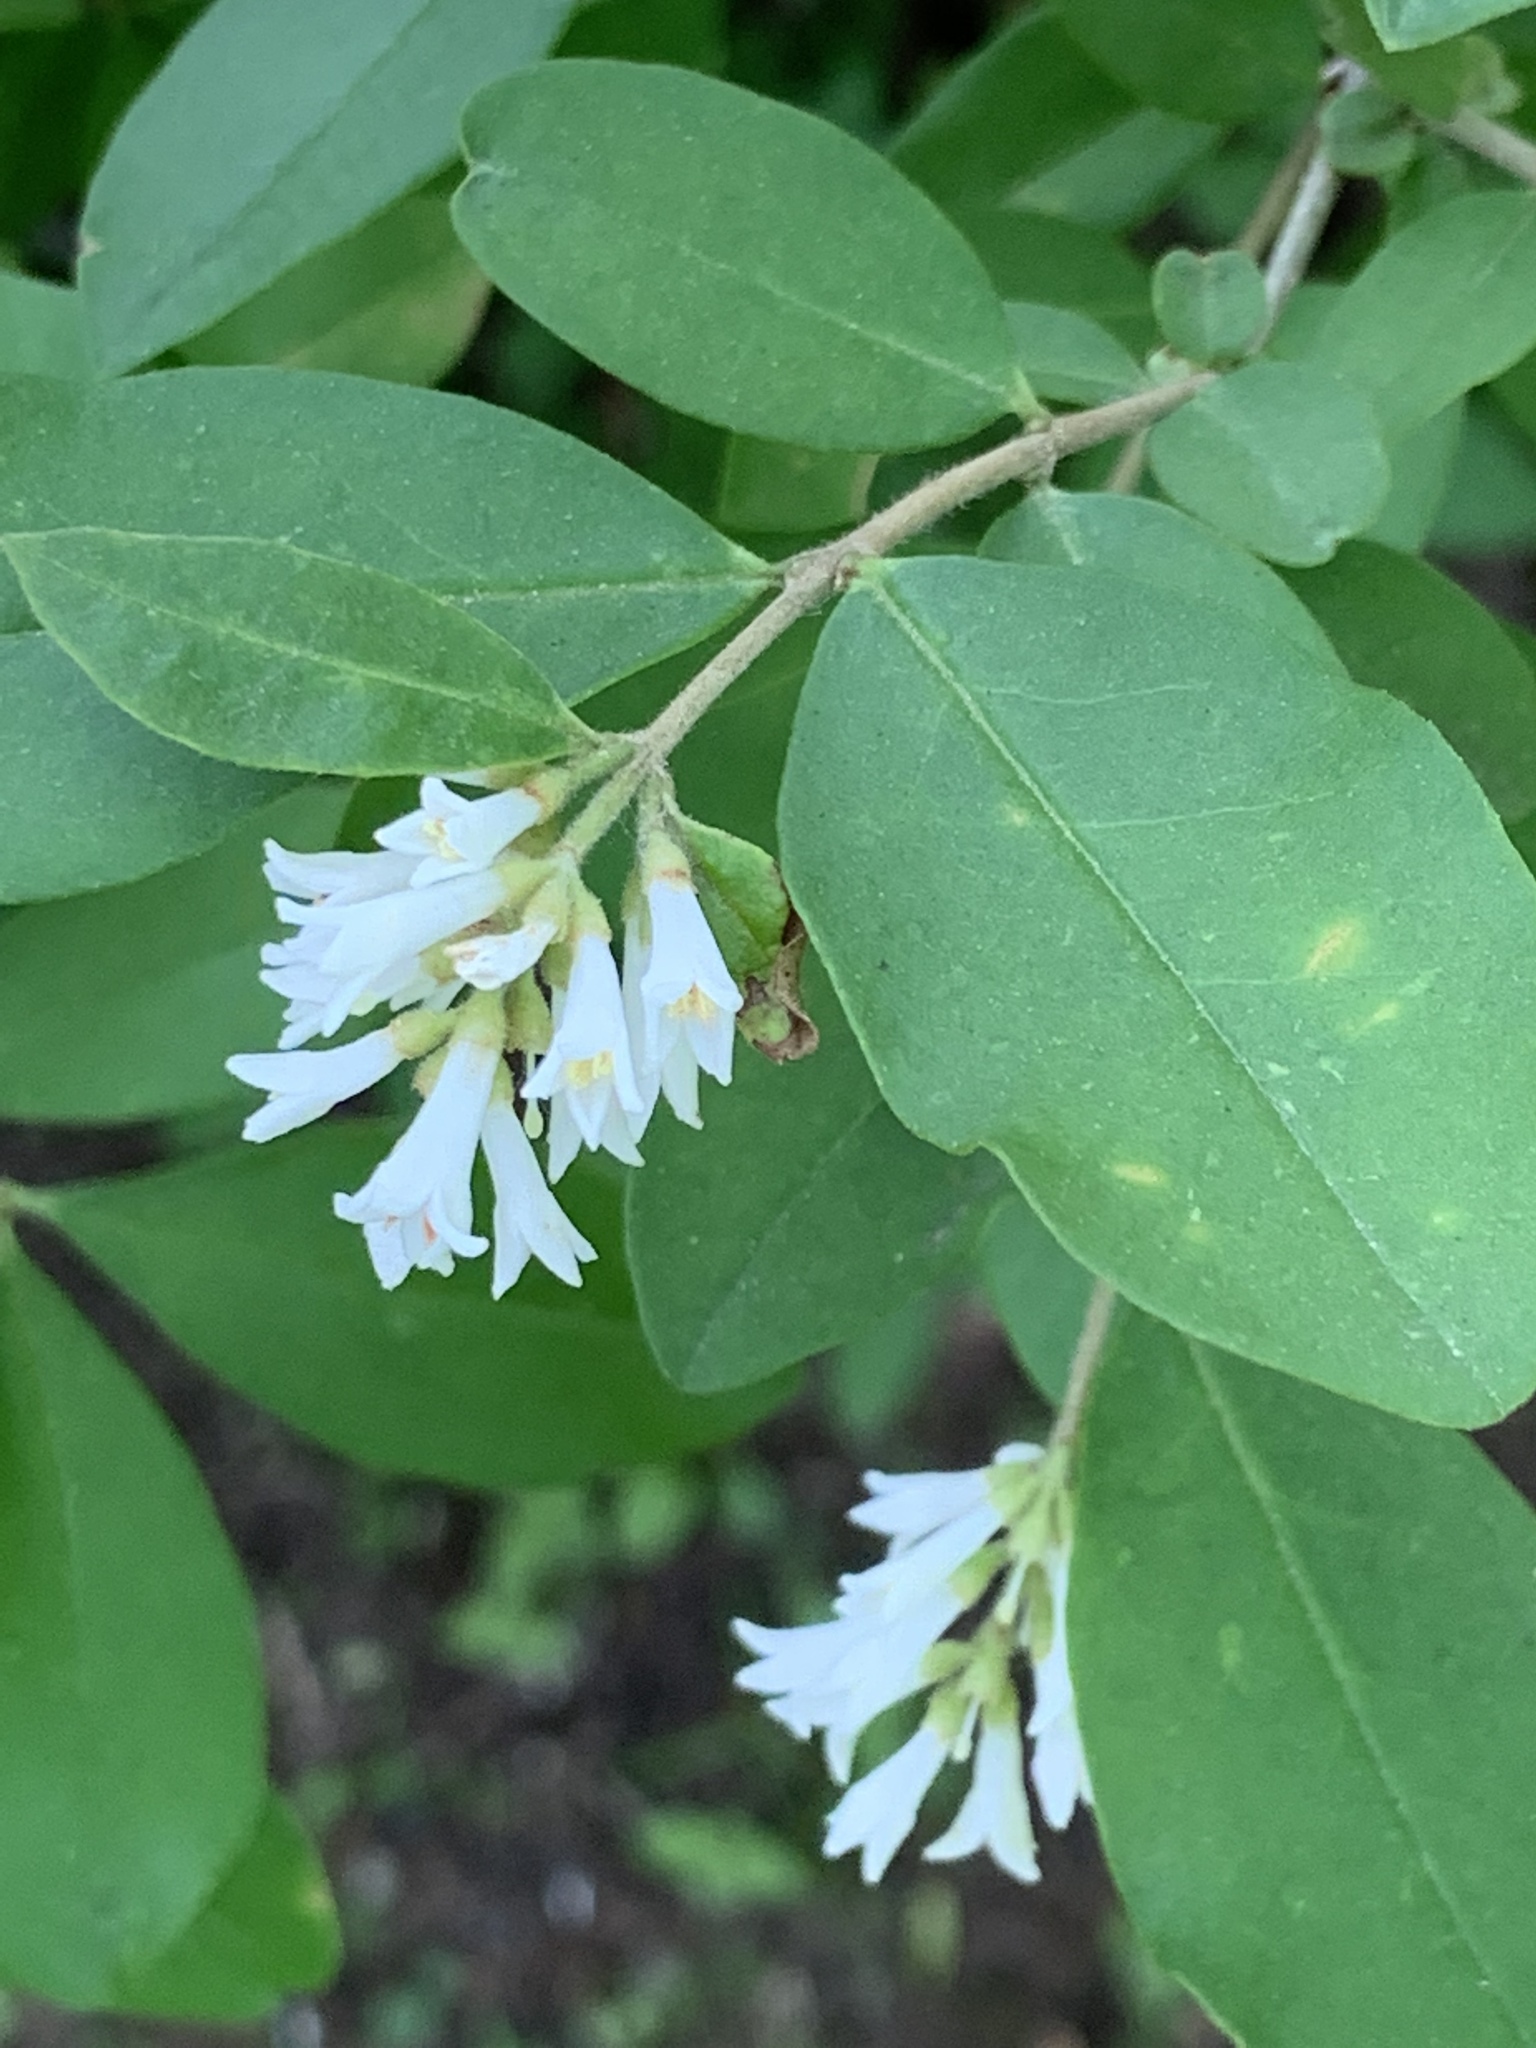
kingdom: Plantae
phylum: Tracheophyta
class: Magnoliopsida
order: Lamiales
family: Oleaceae
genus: Ligustrum
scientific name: Ligustrum obtusifolium
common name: Border privet
